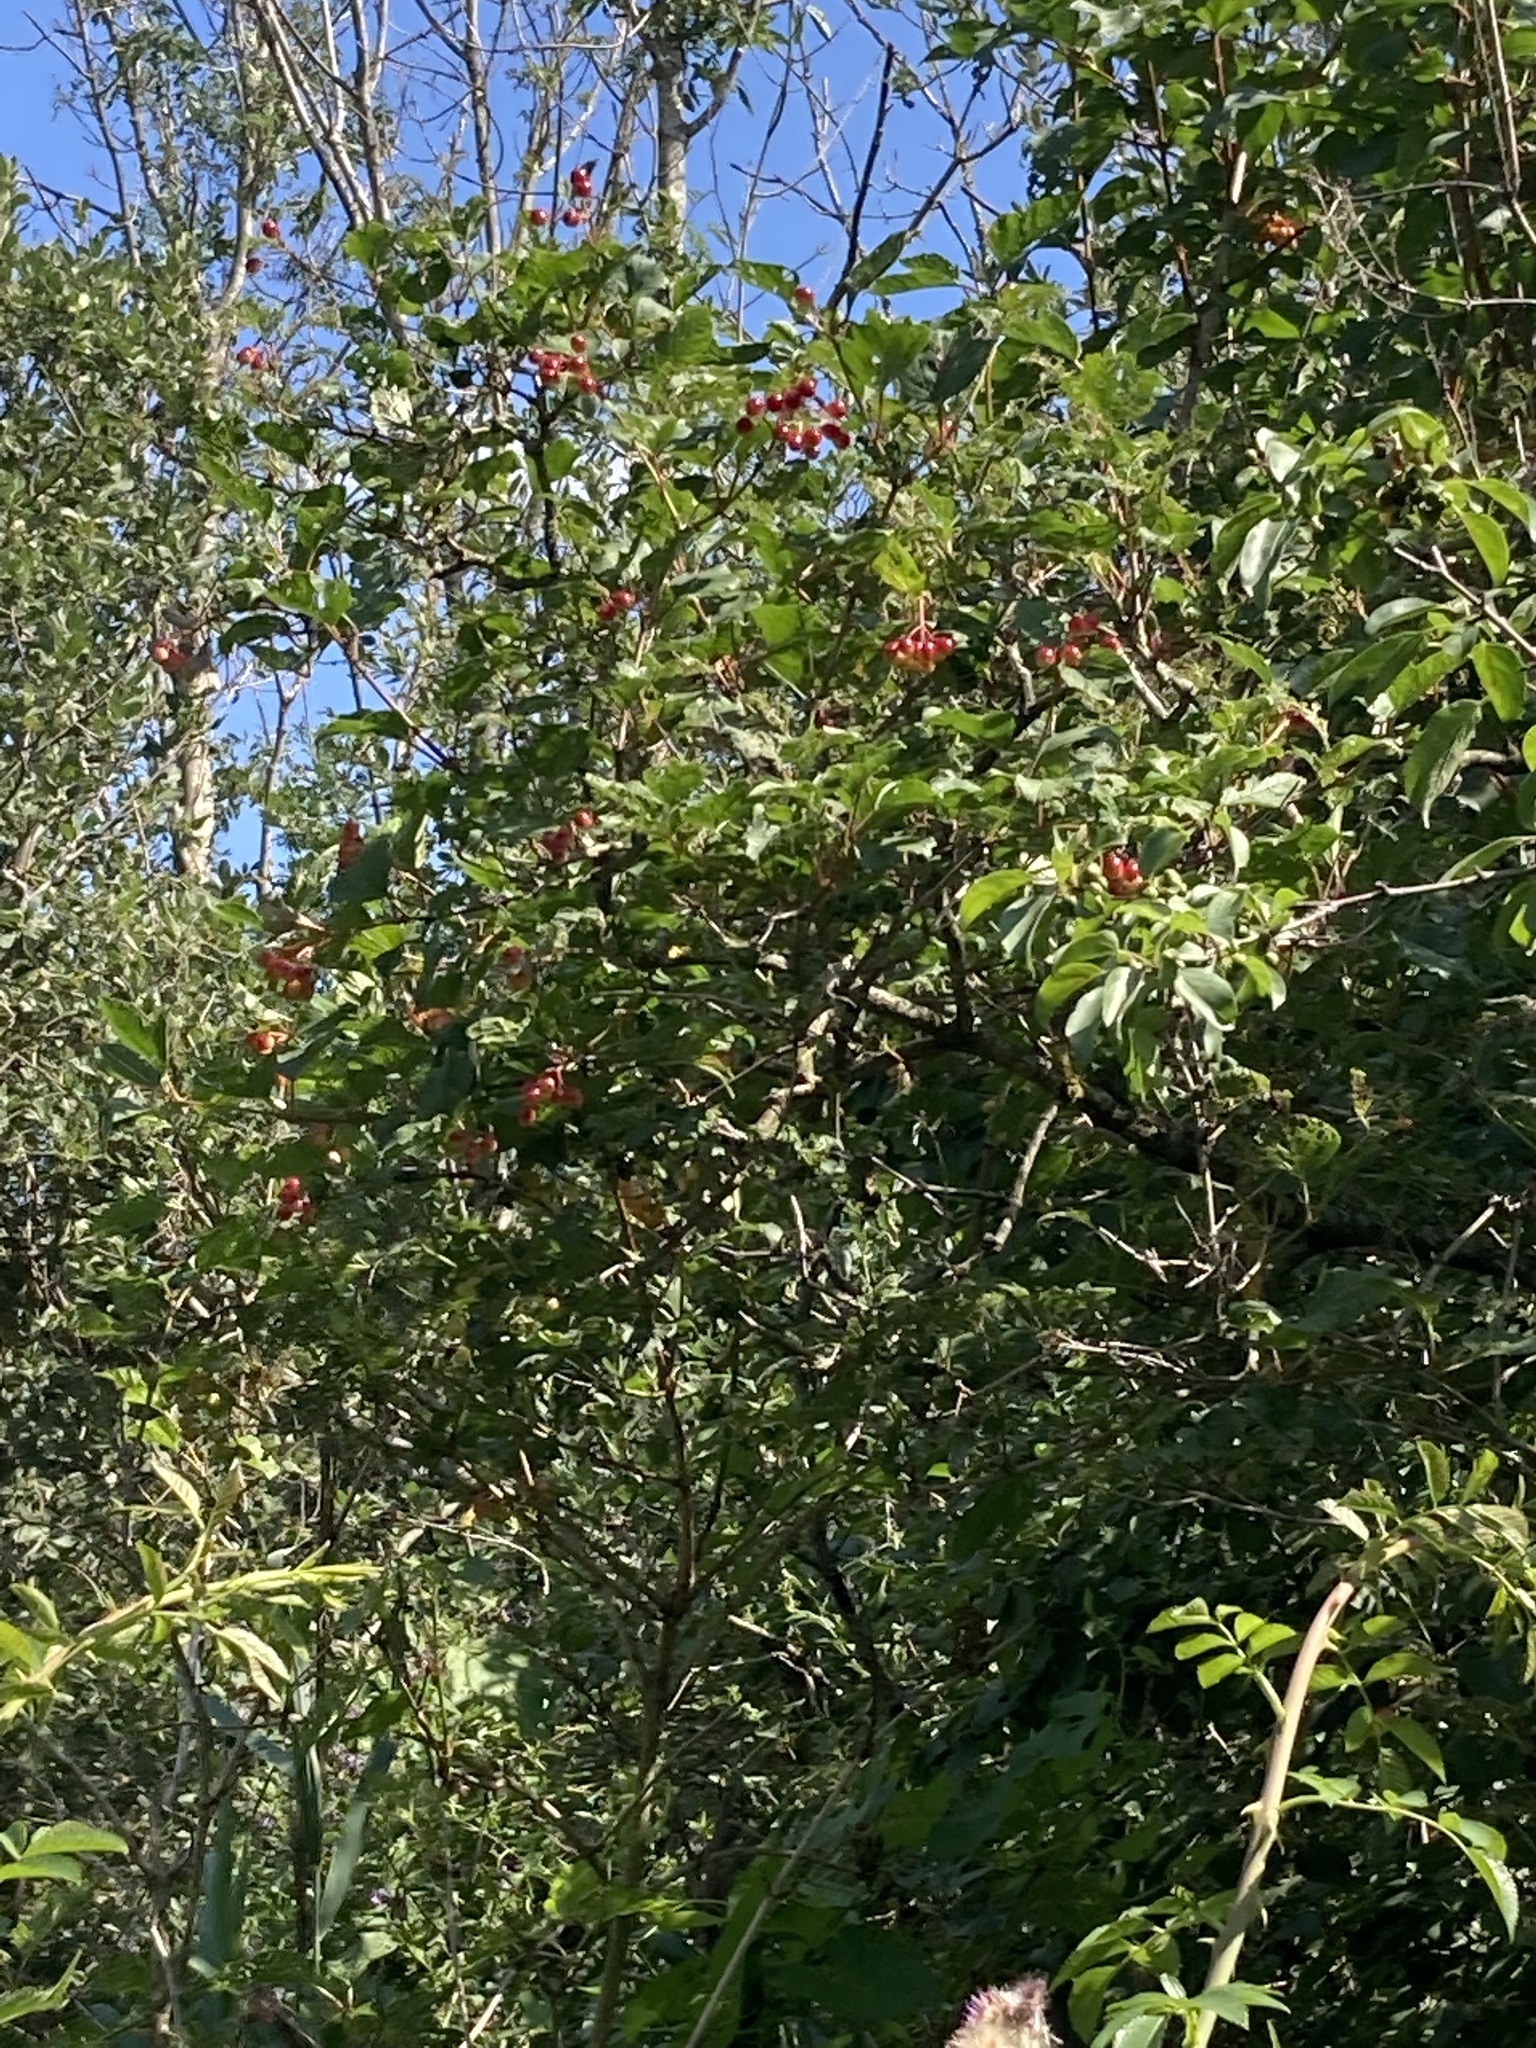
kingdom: Plantae
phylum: Tracheophyta
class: Magnoliopsida
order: Dipsacales
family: Viburnaceae
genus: Viburnum
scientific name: Viburnum opulus
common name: Guelder-rose
